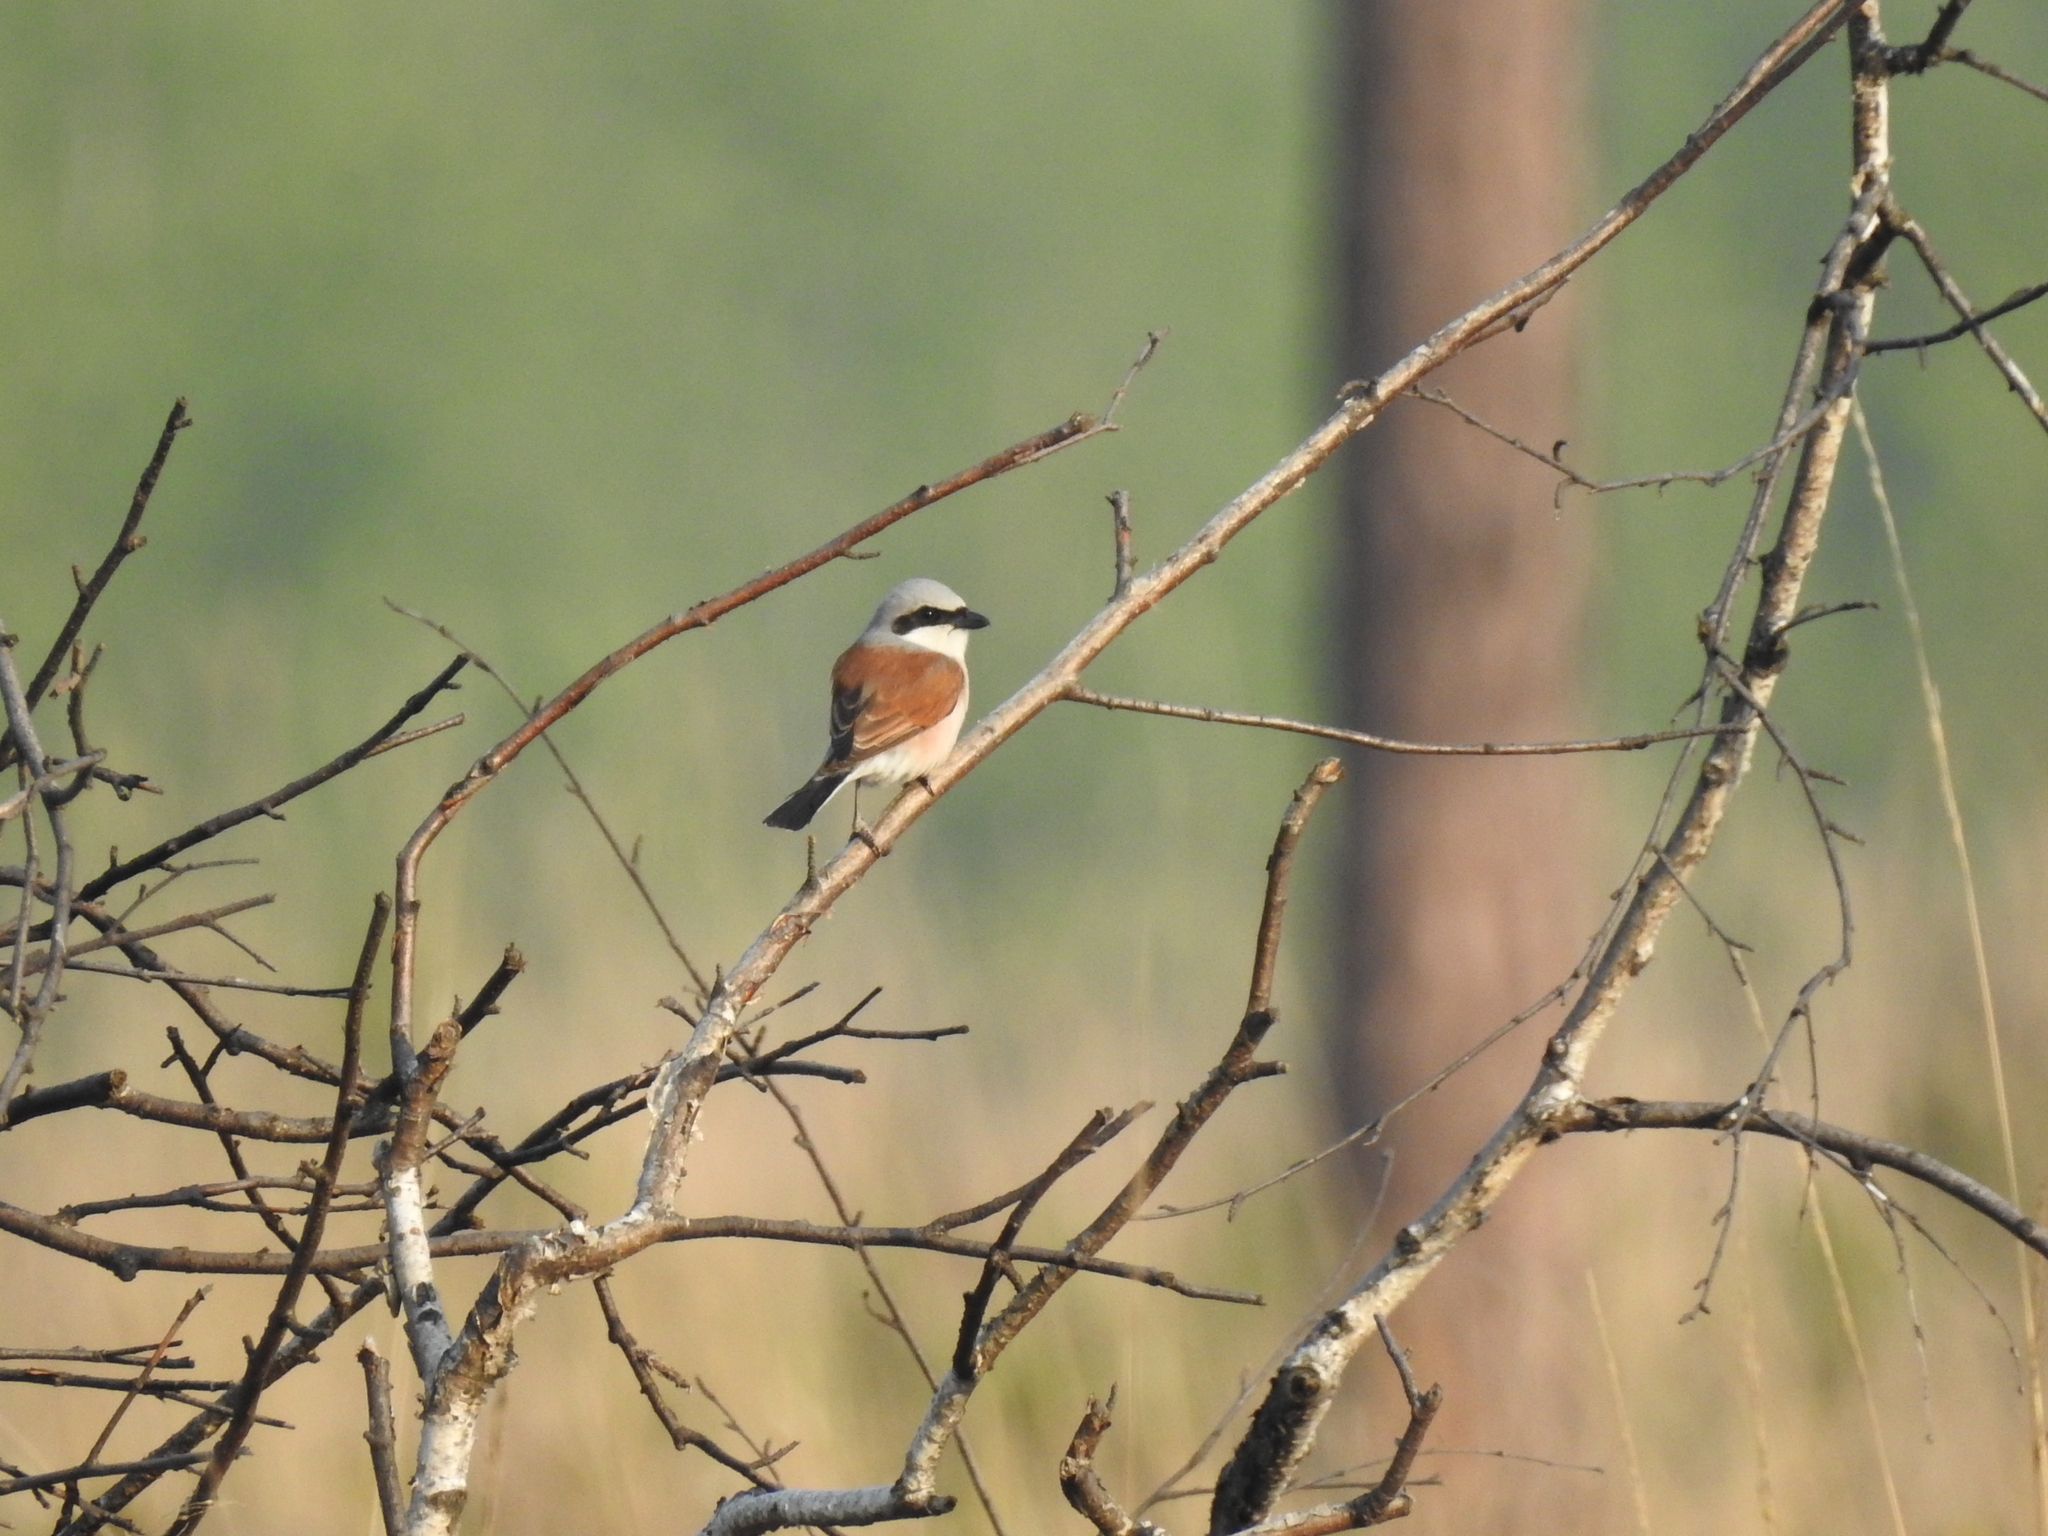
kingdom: Animalia
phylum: Chordata
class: Aves
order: Passeriformes
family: Laniidae
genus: Lanius
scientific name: Lanius collurio
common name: Red-backed shrike
